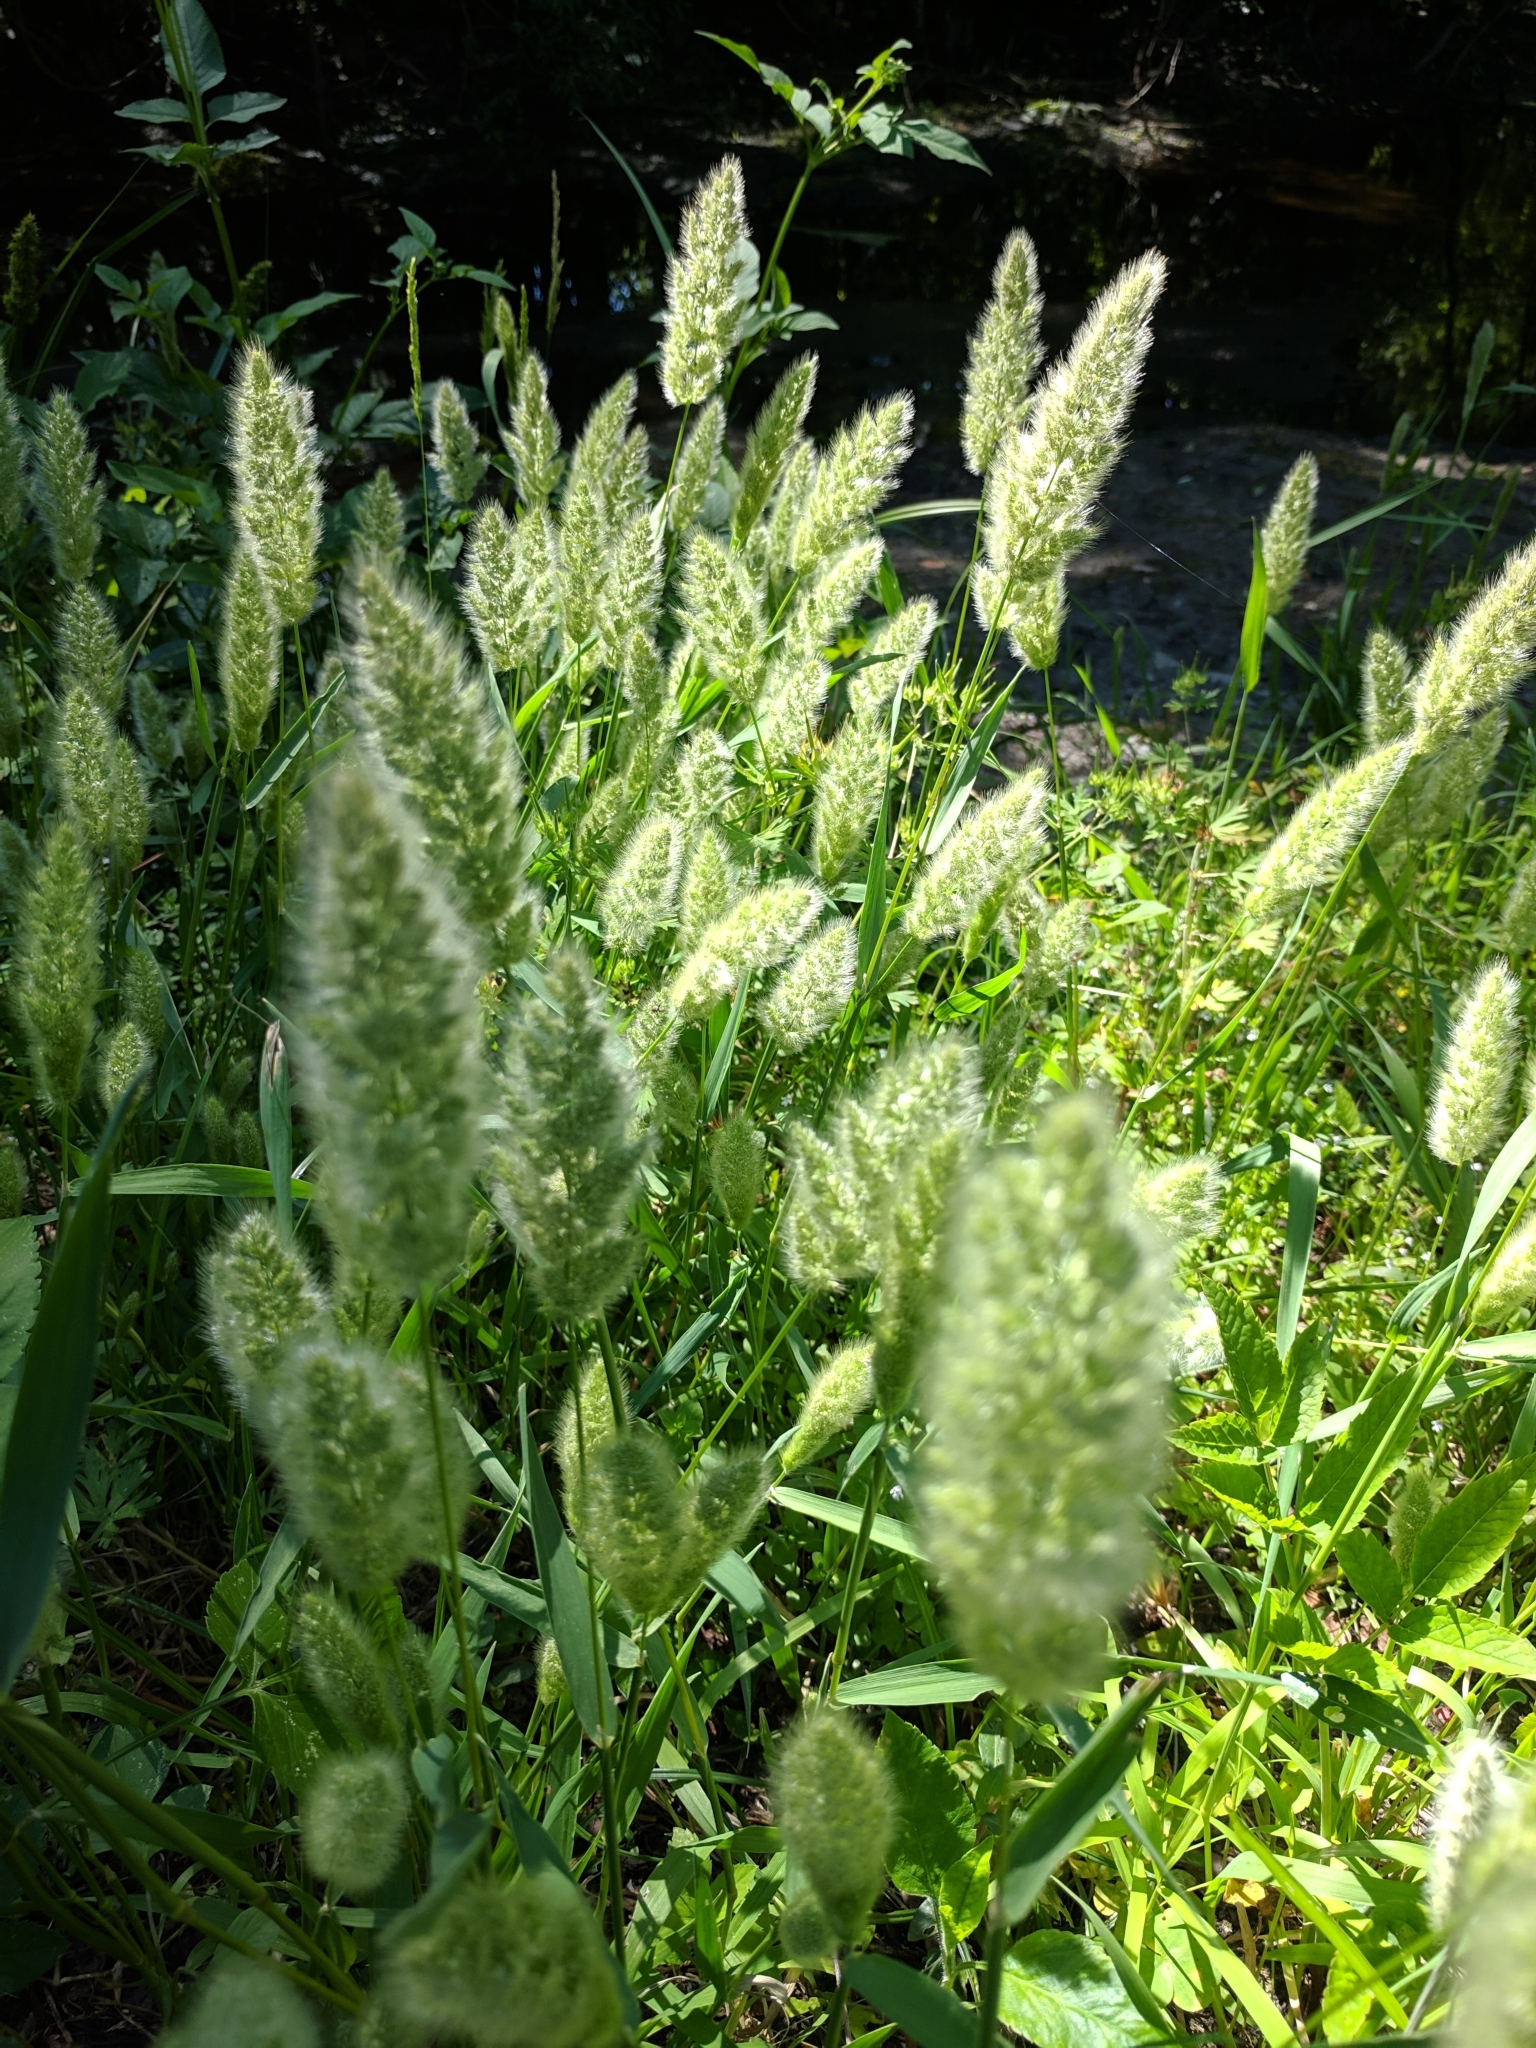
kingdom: Plantae
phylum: Tracheophyta
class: Liliopsida
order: Poales
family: Poaceae
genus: Polypogon
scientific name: Polypogon monspeliensis
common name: Annual rabbitsfoot grass
